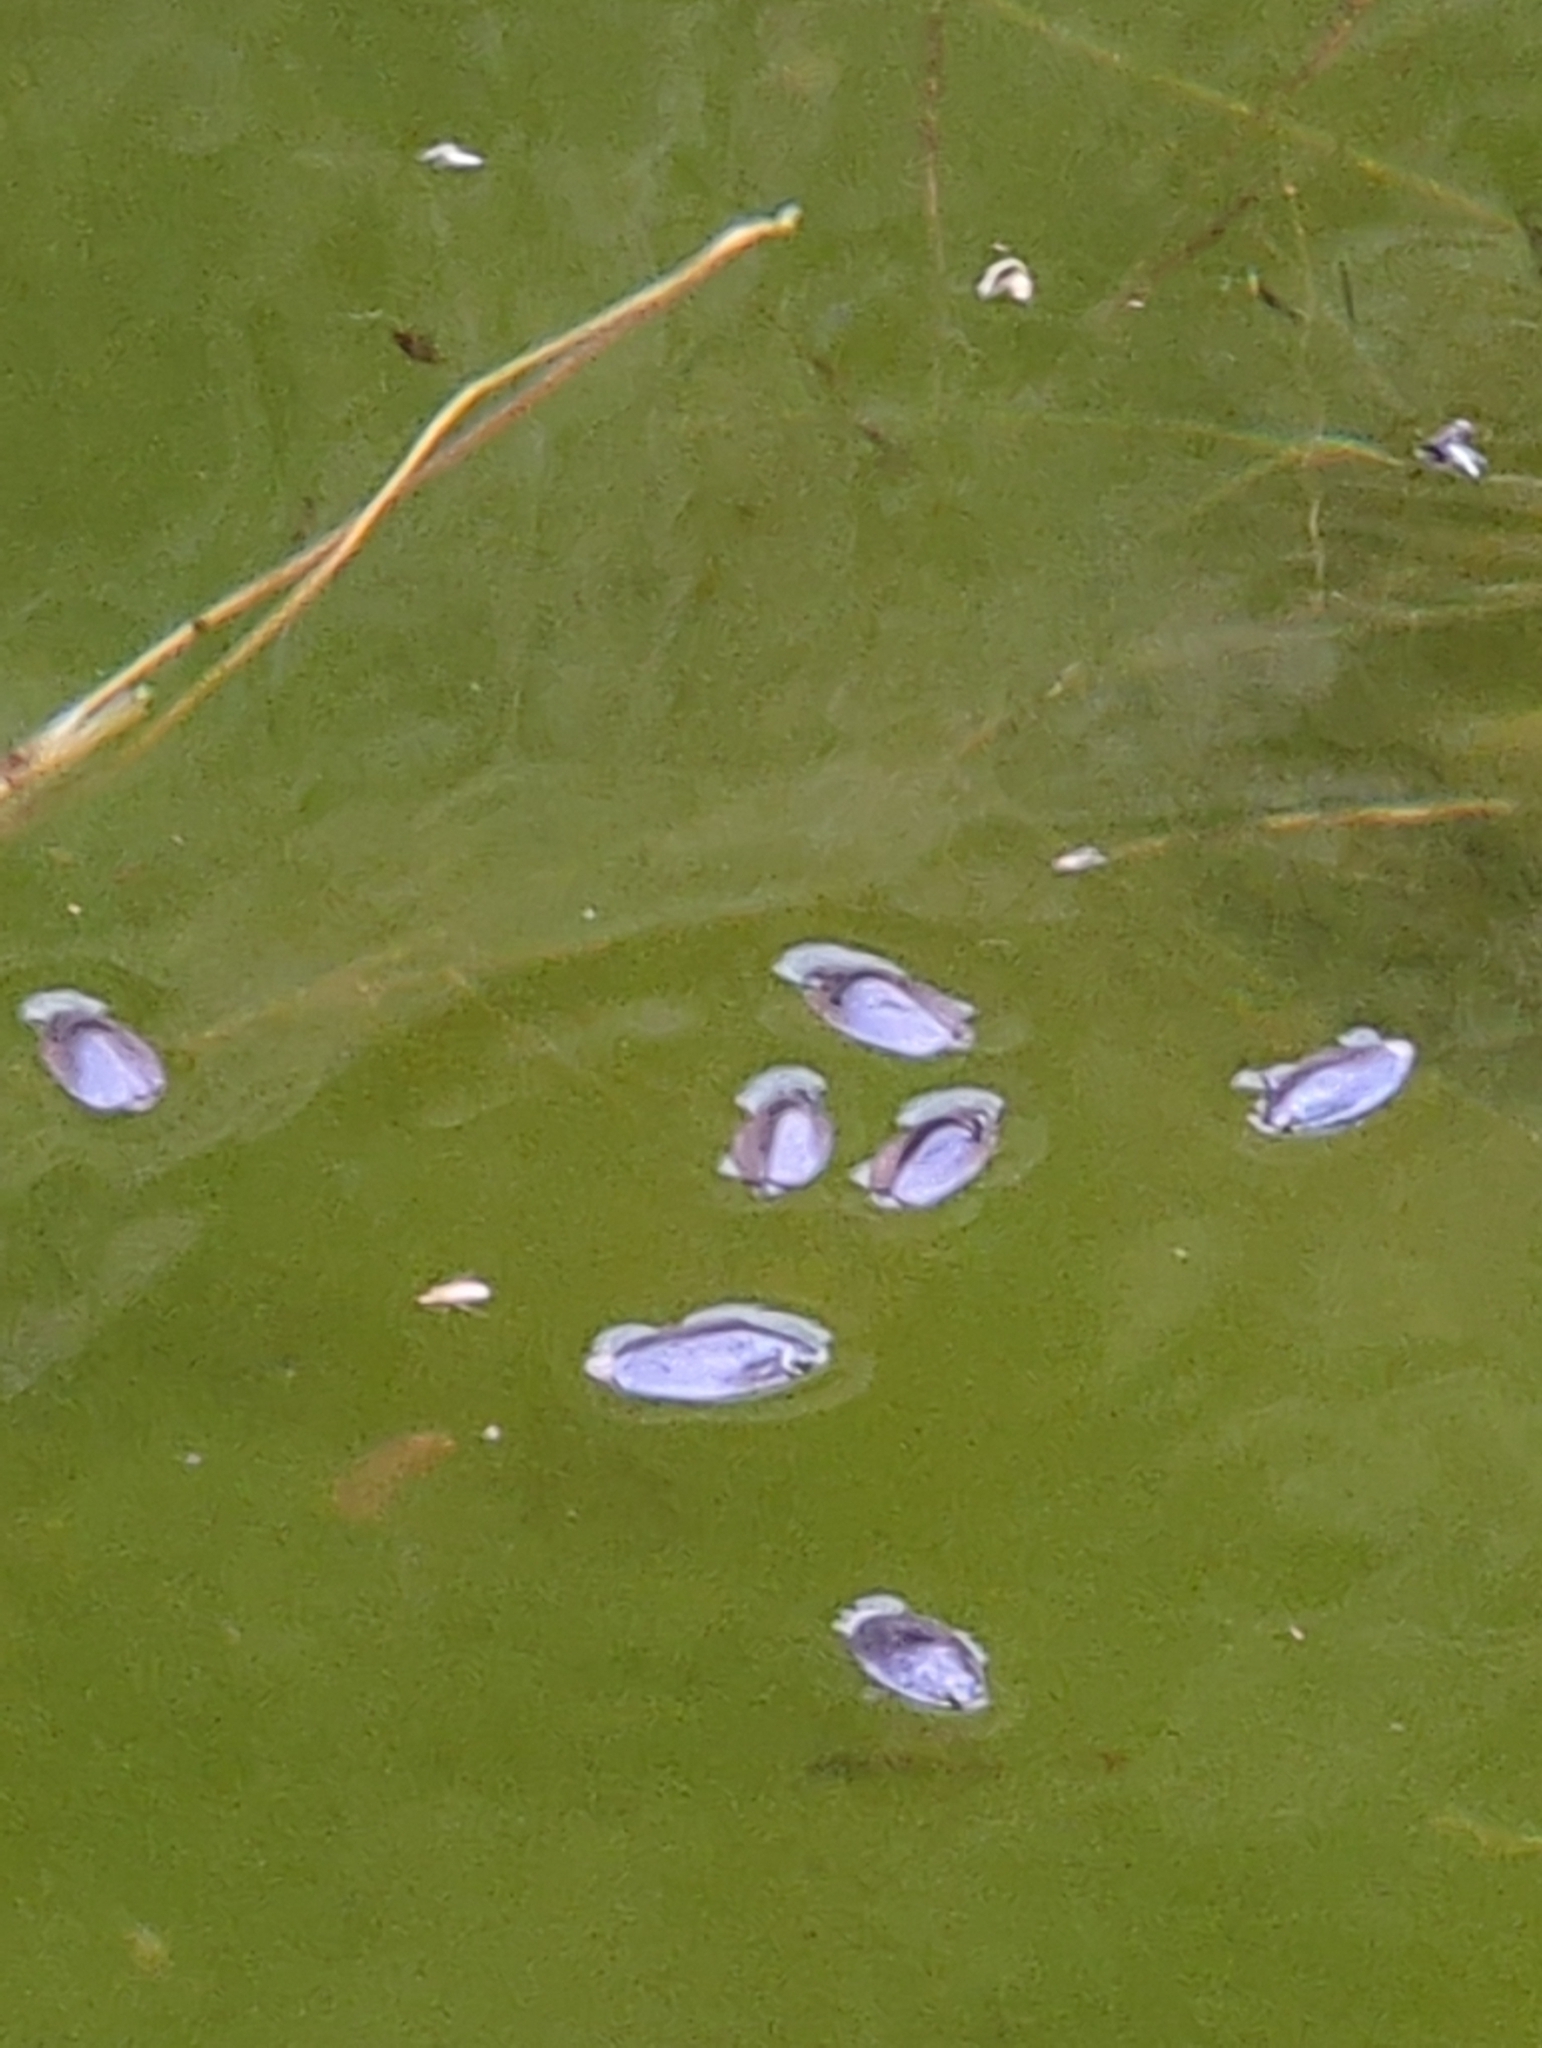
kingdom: Animalia
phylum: Arthropoda
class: Insecta
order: Coleoptera
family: Gyrinidae
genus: Dineutus
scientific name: Dineutus
